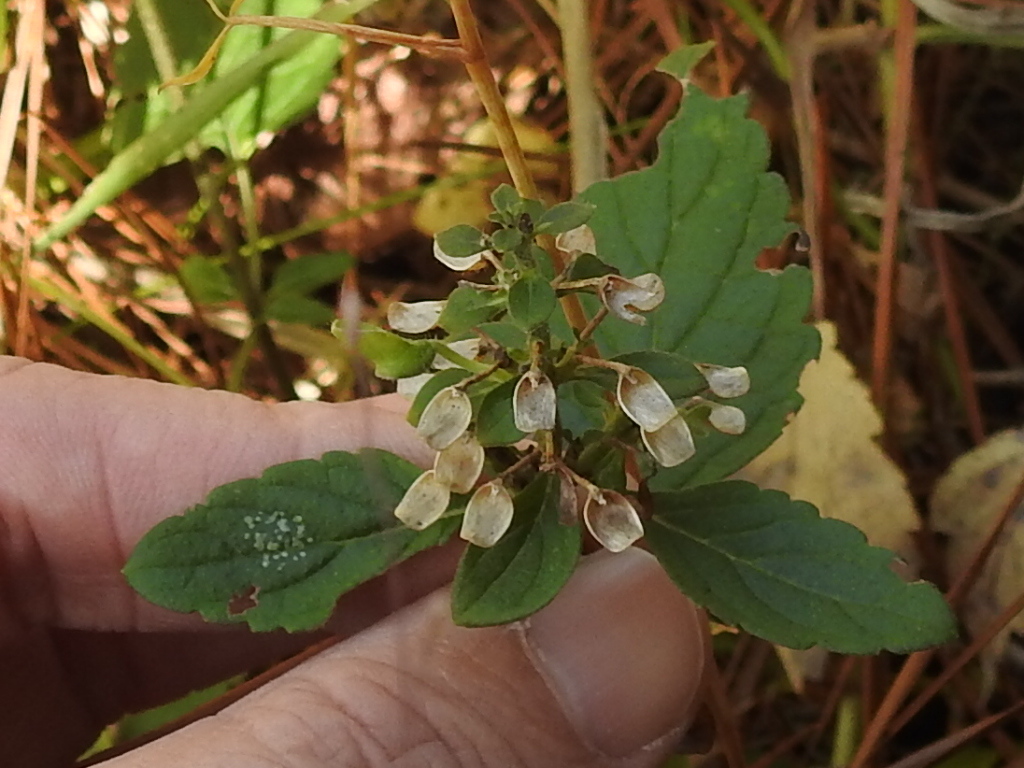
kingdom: Plantae
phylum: Tracheophyta
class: Magnoliopsida
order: Lamiales
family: Lamiaceae
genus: Scutellaria
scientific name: Scutellaria elliptica
